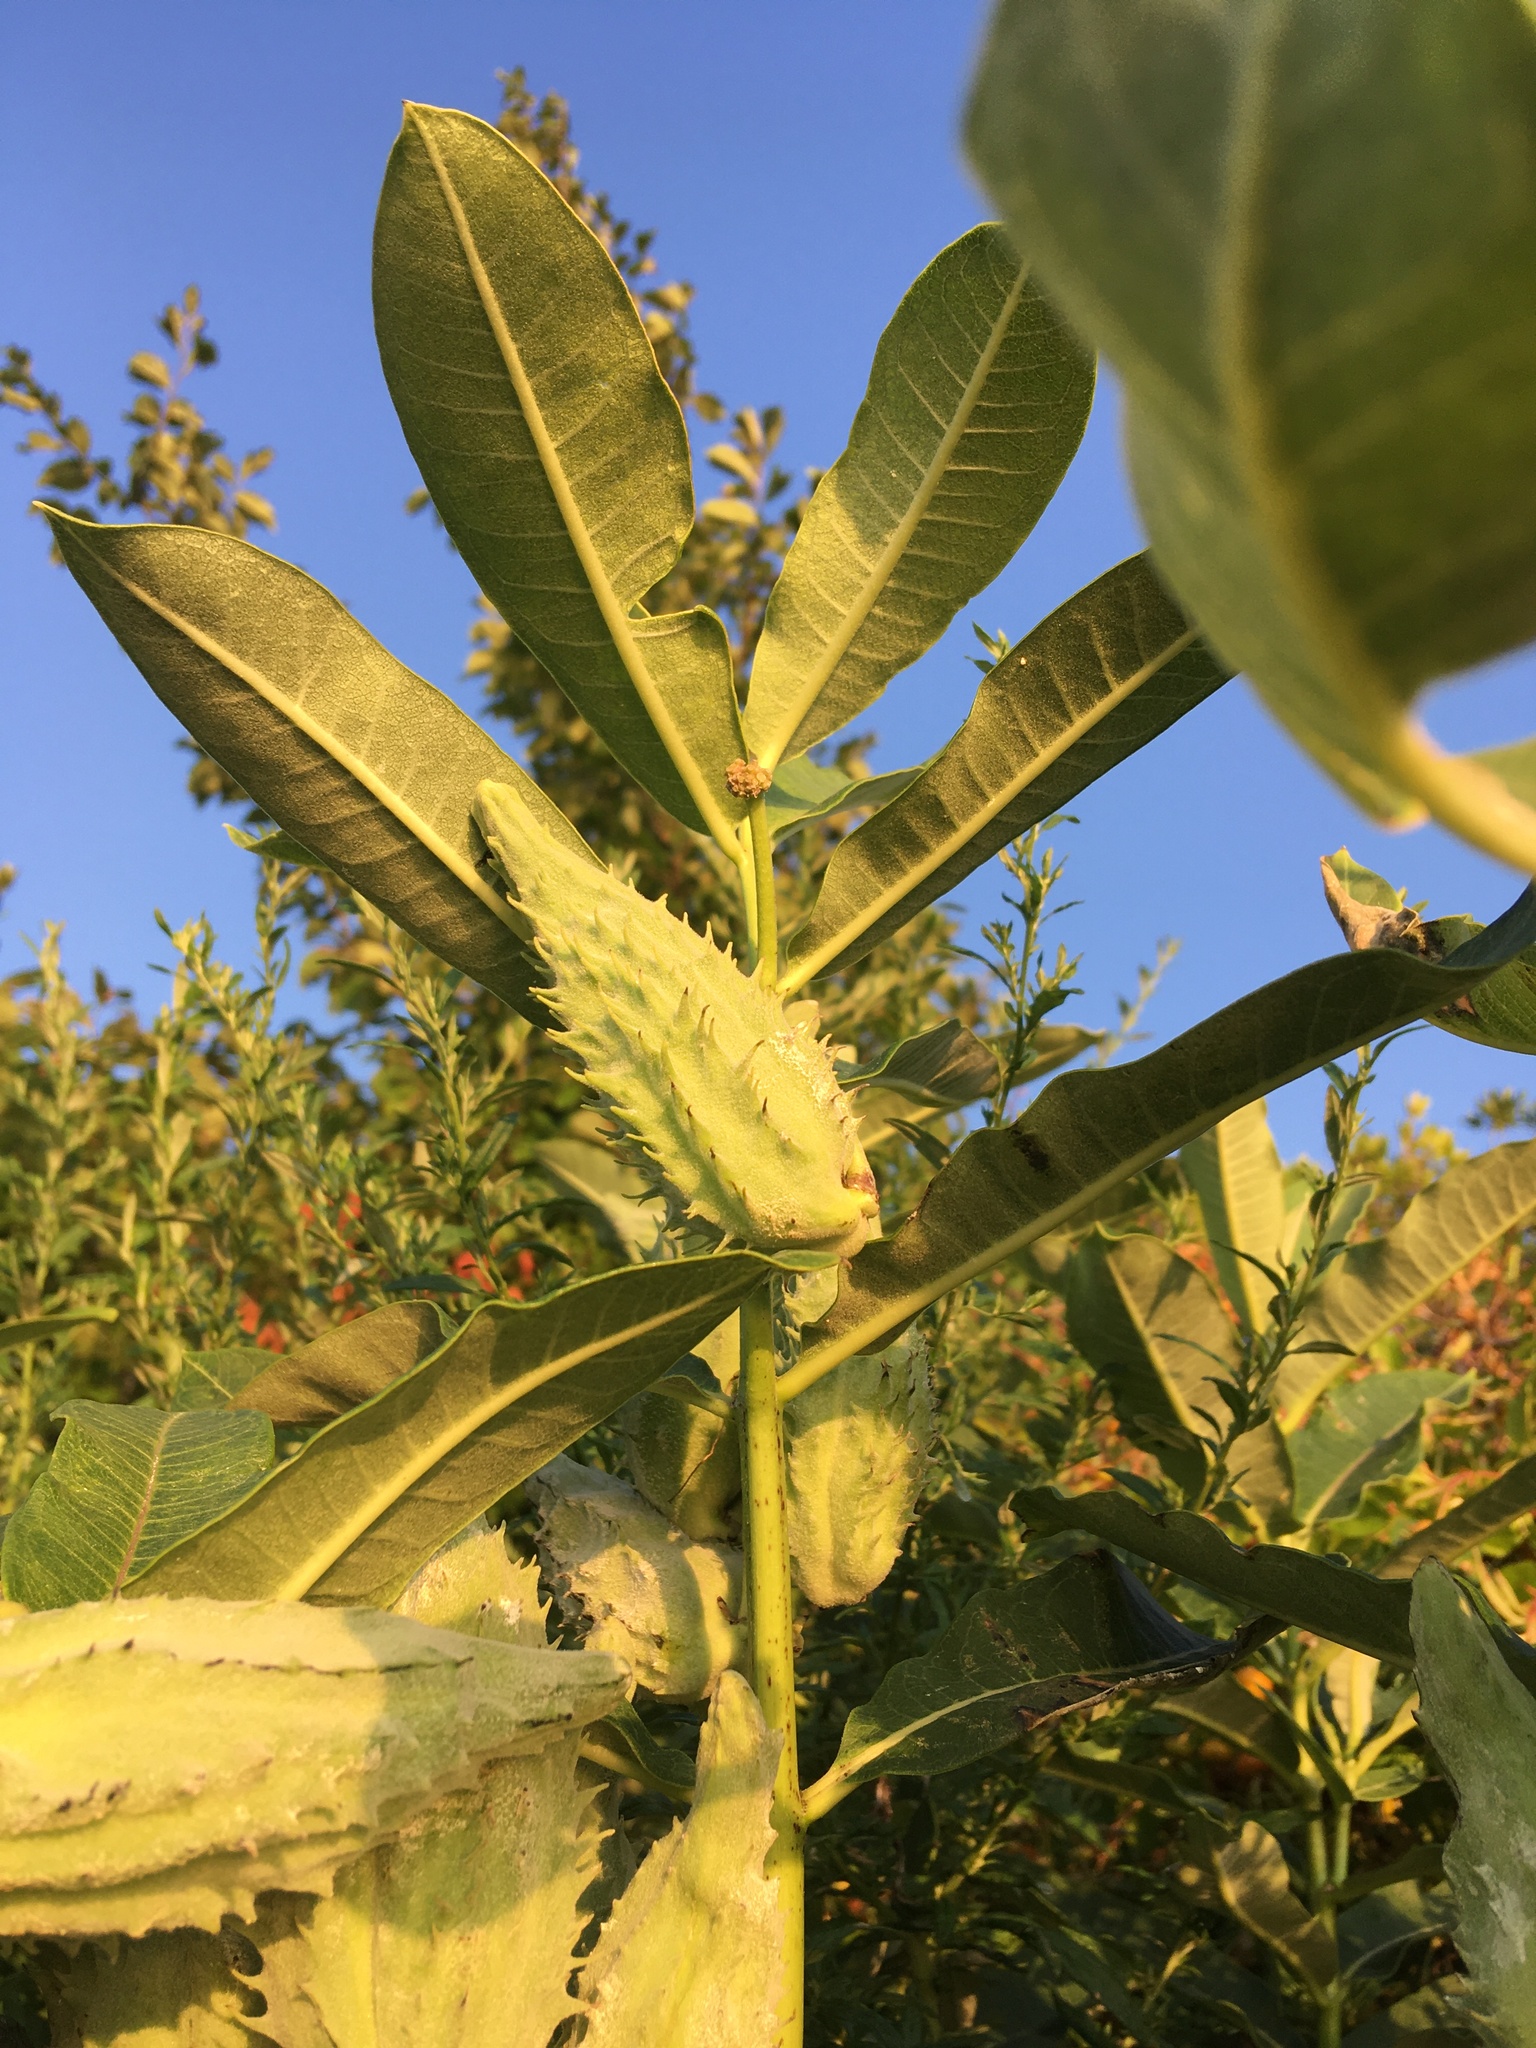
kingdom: Plantae
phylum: Tracheophyta
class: Magnoliopsida
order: Gentianales
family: Apocynaceae
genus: Asclepias
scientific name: Asclepias syriaca
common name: Common milkweed
